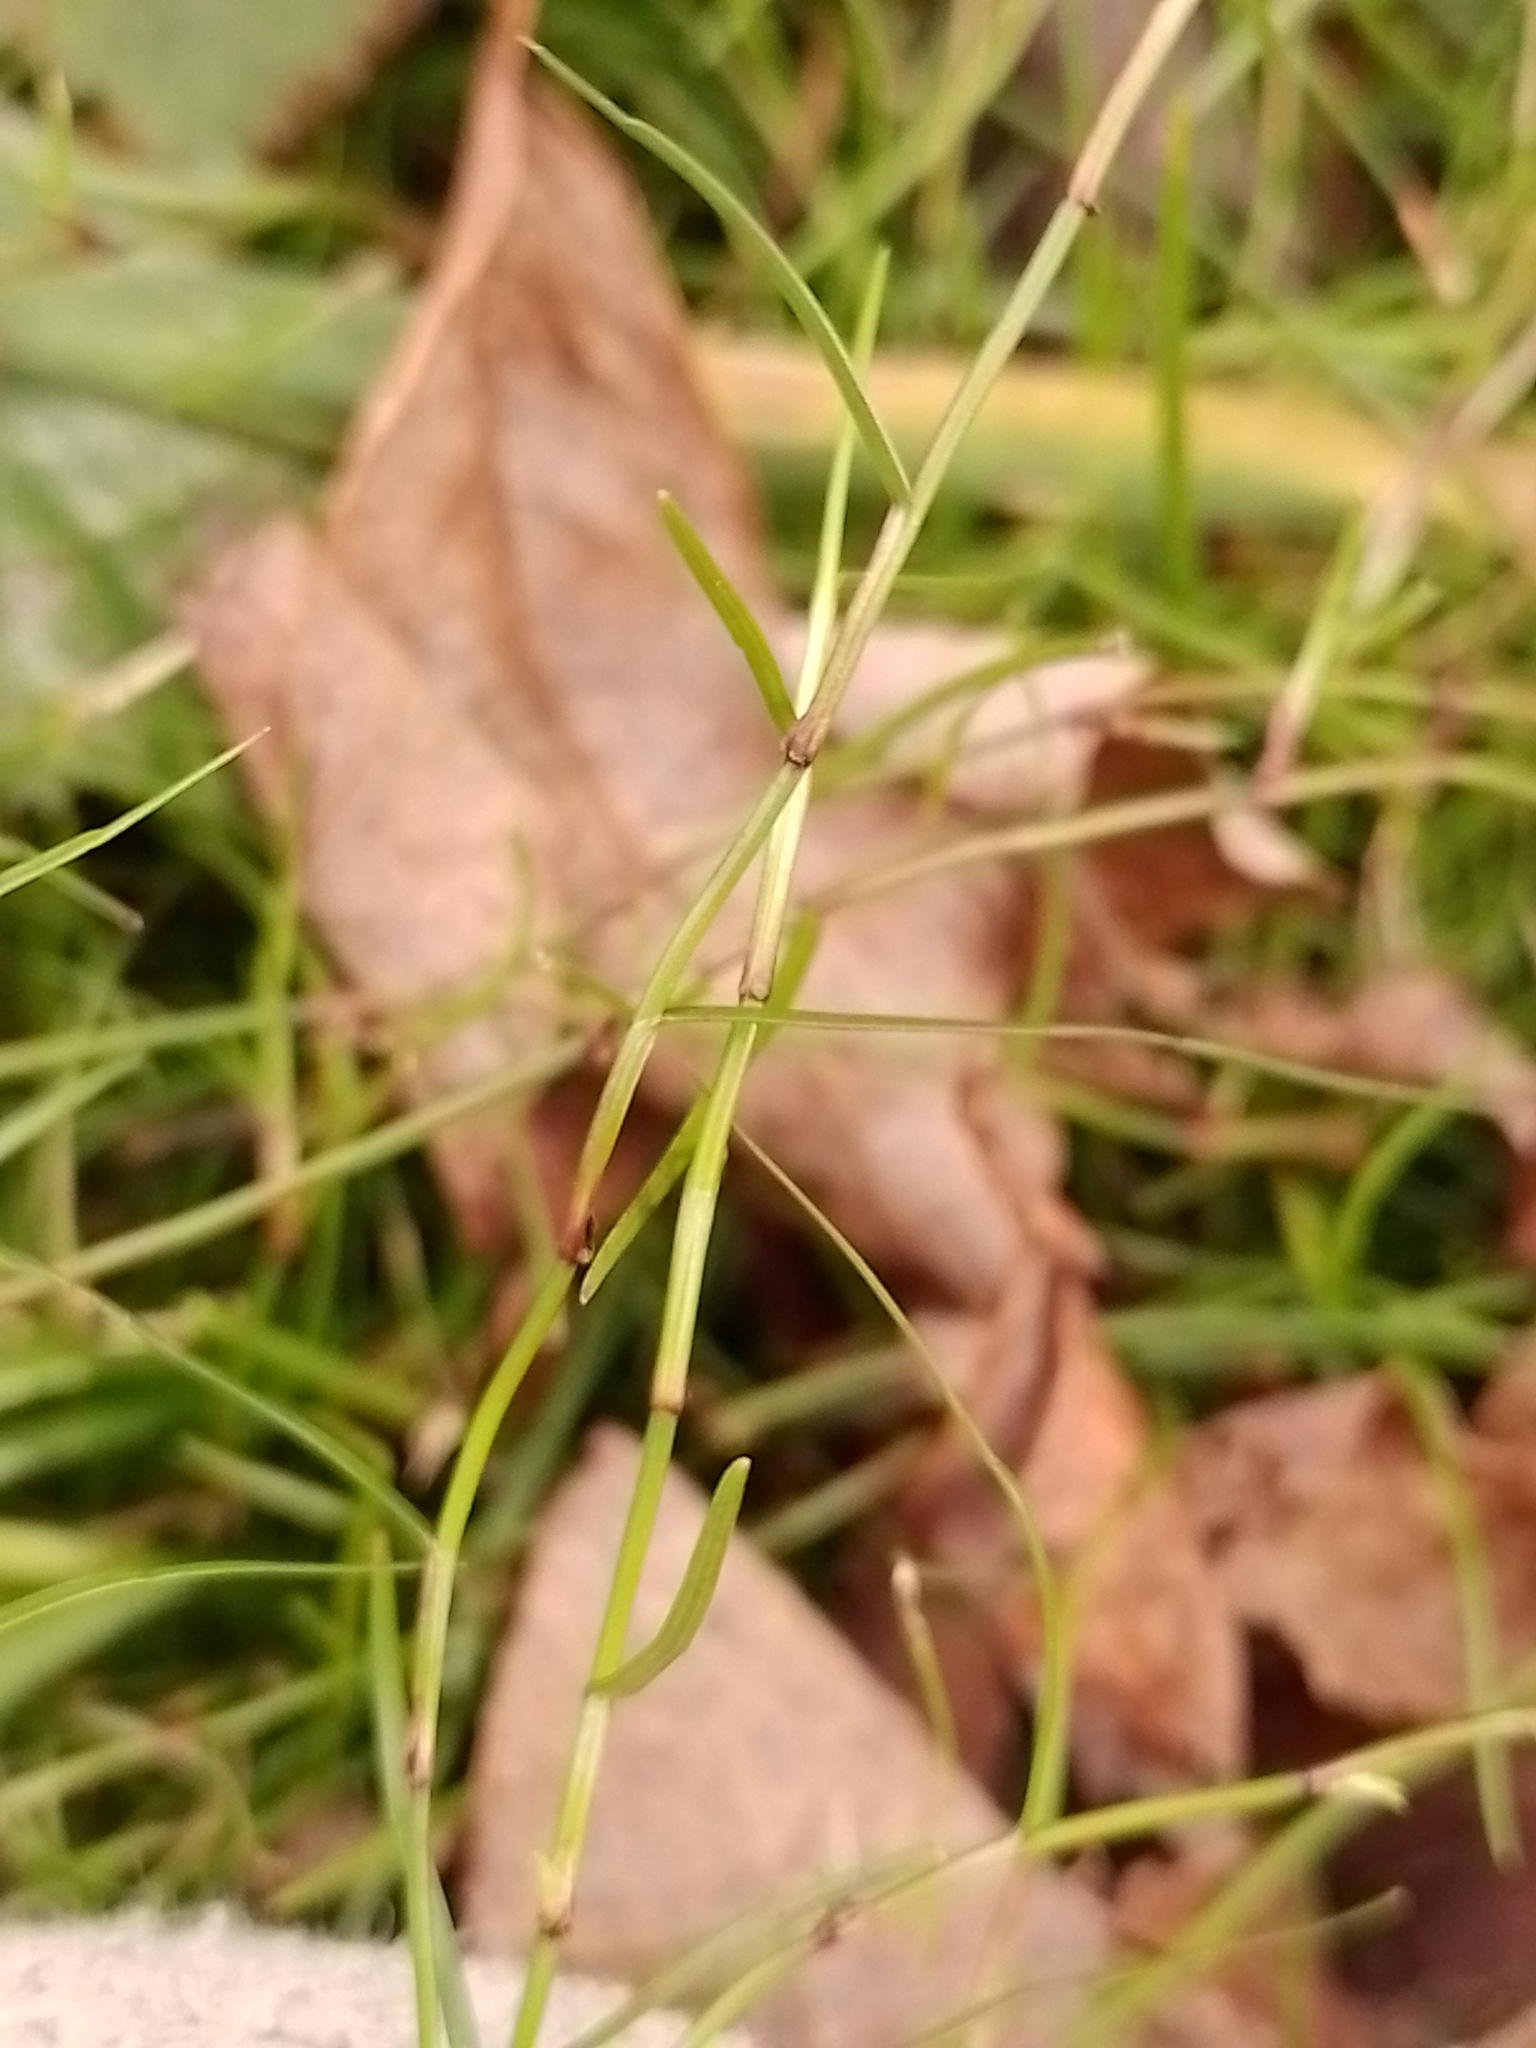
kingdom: Plantae
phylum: Tracheophyta
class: Liliopsida
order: Poales
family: Cyperaceae
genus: Schoenus
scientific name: Schoenus maschalinus
